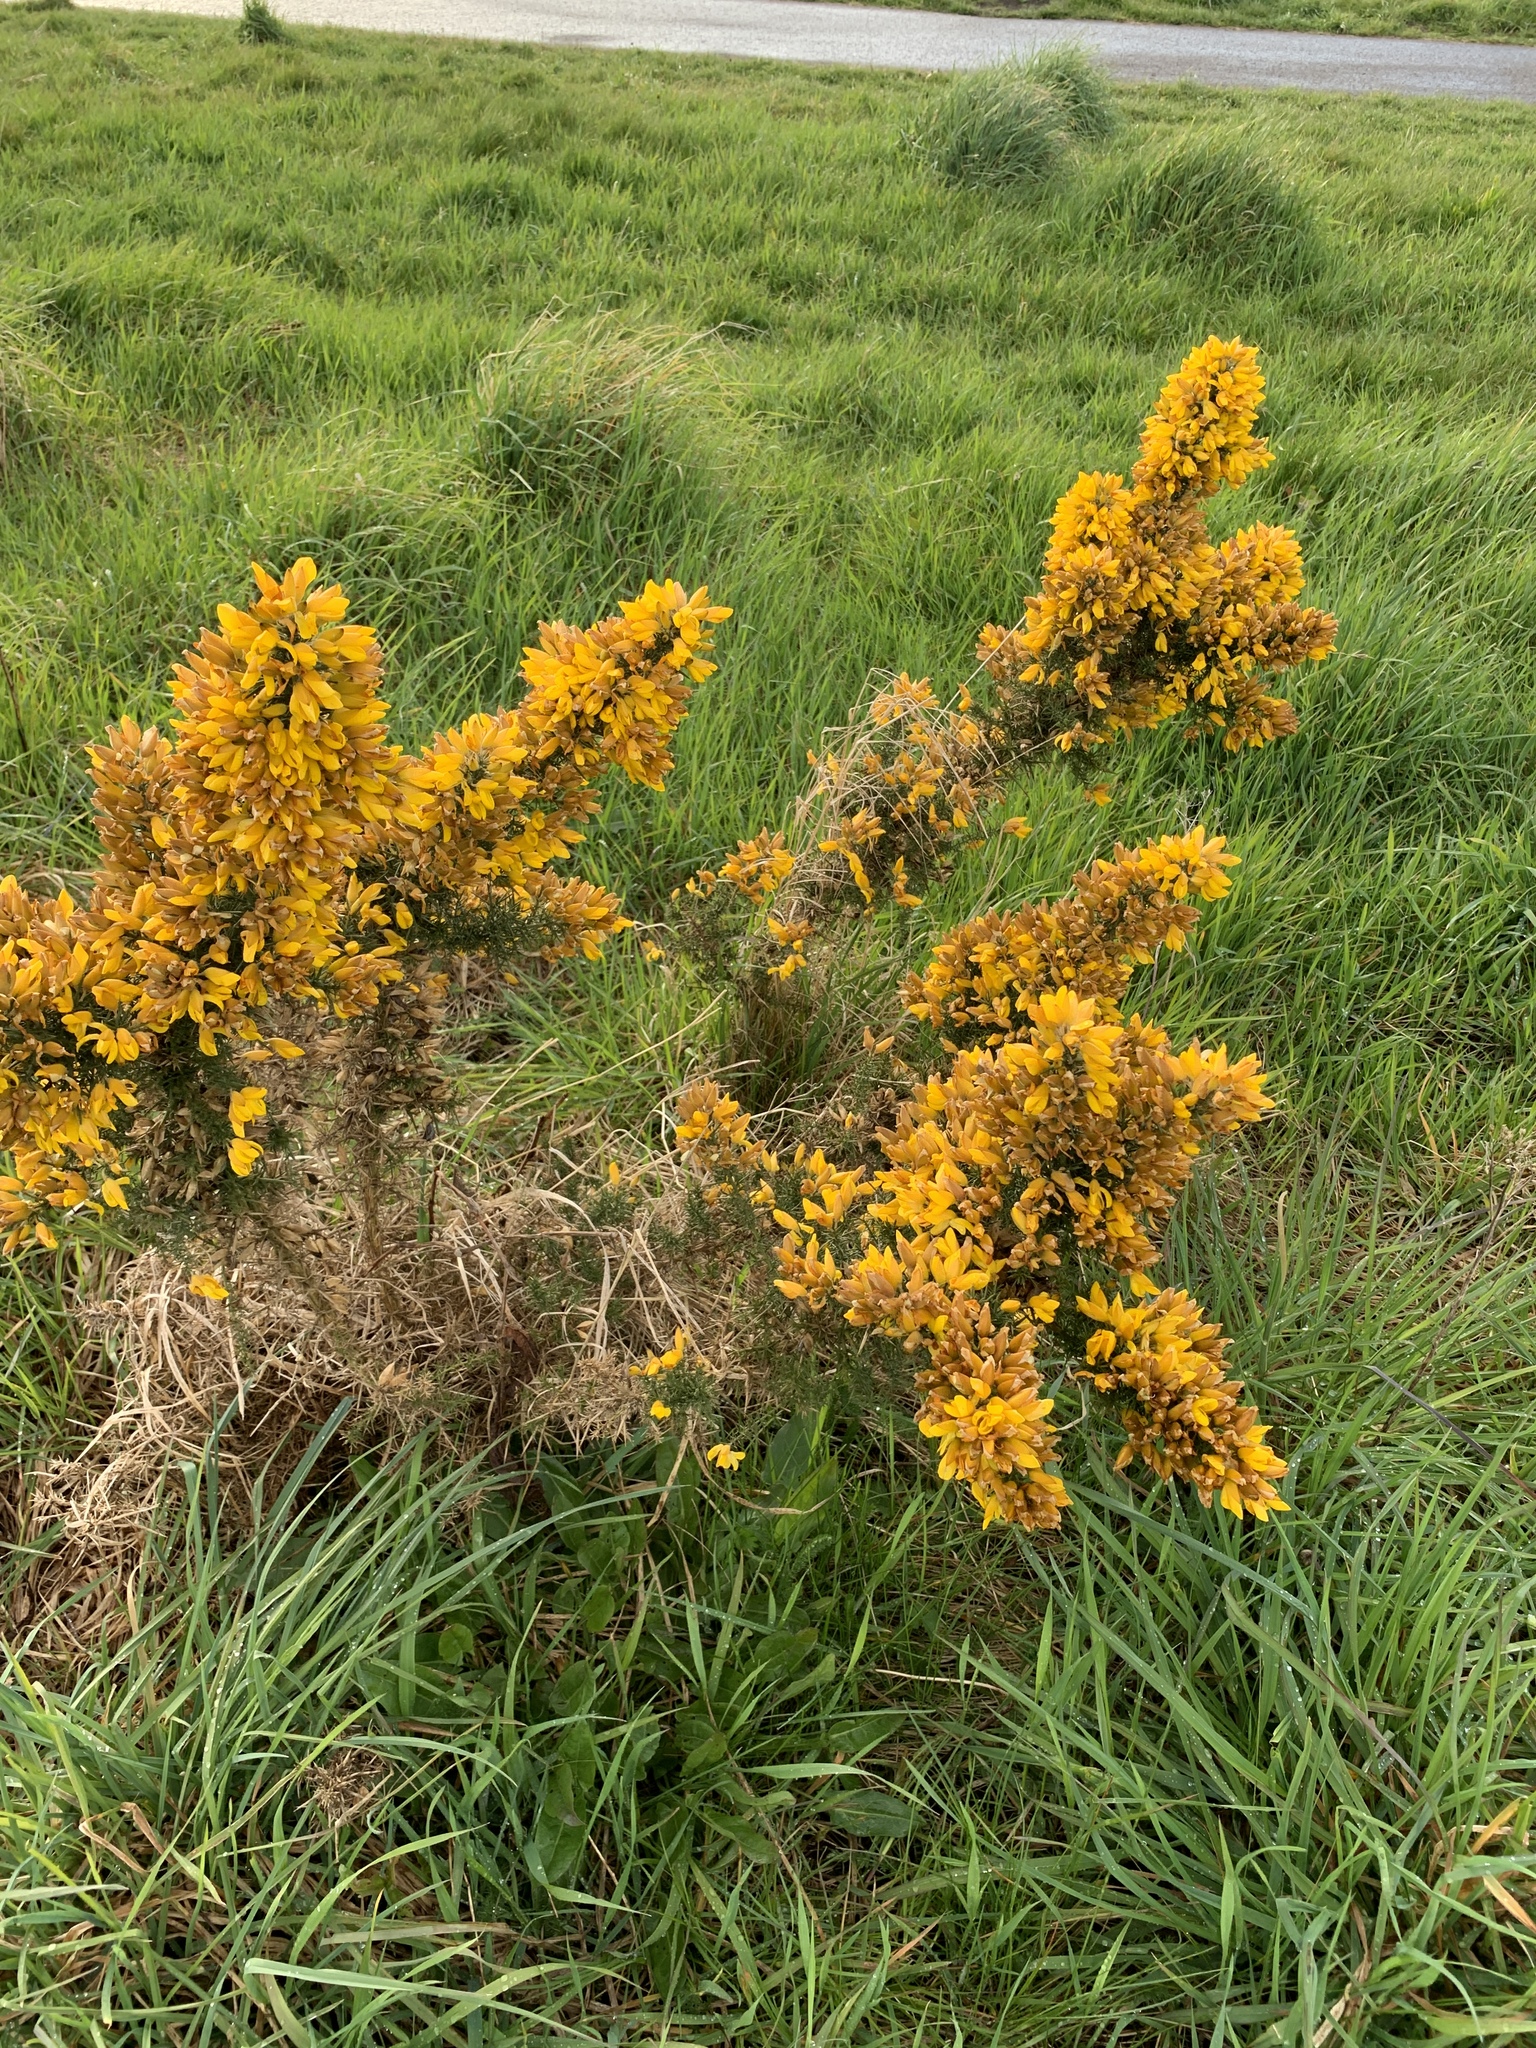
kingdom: Plantae
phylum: Tracheophyta
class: Magnoliopsida
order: Fabales
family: Fabaceae
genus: Ulex
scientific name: Ulex europaeus
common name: Common gorse
